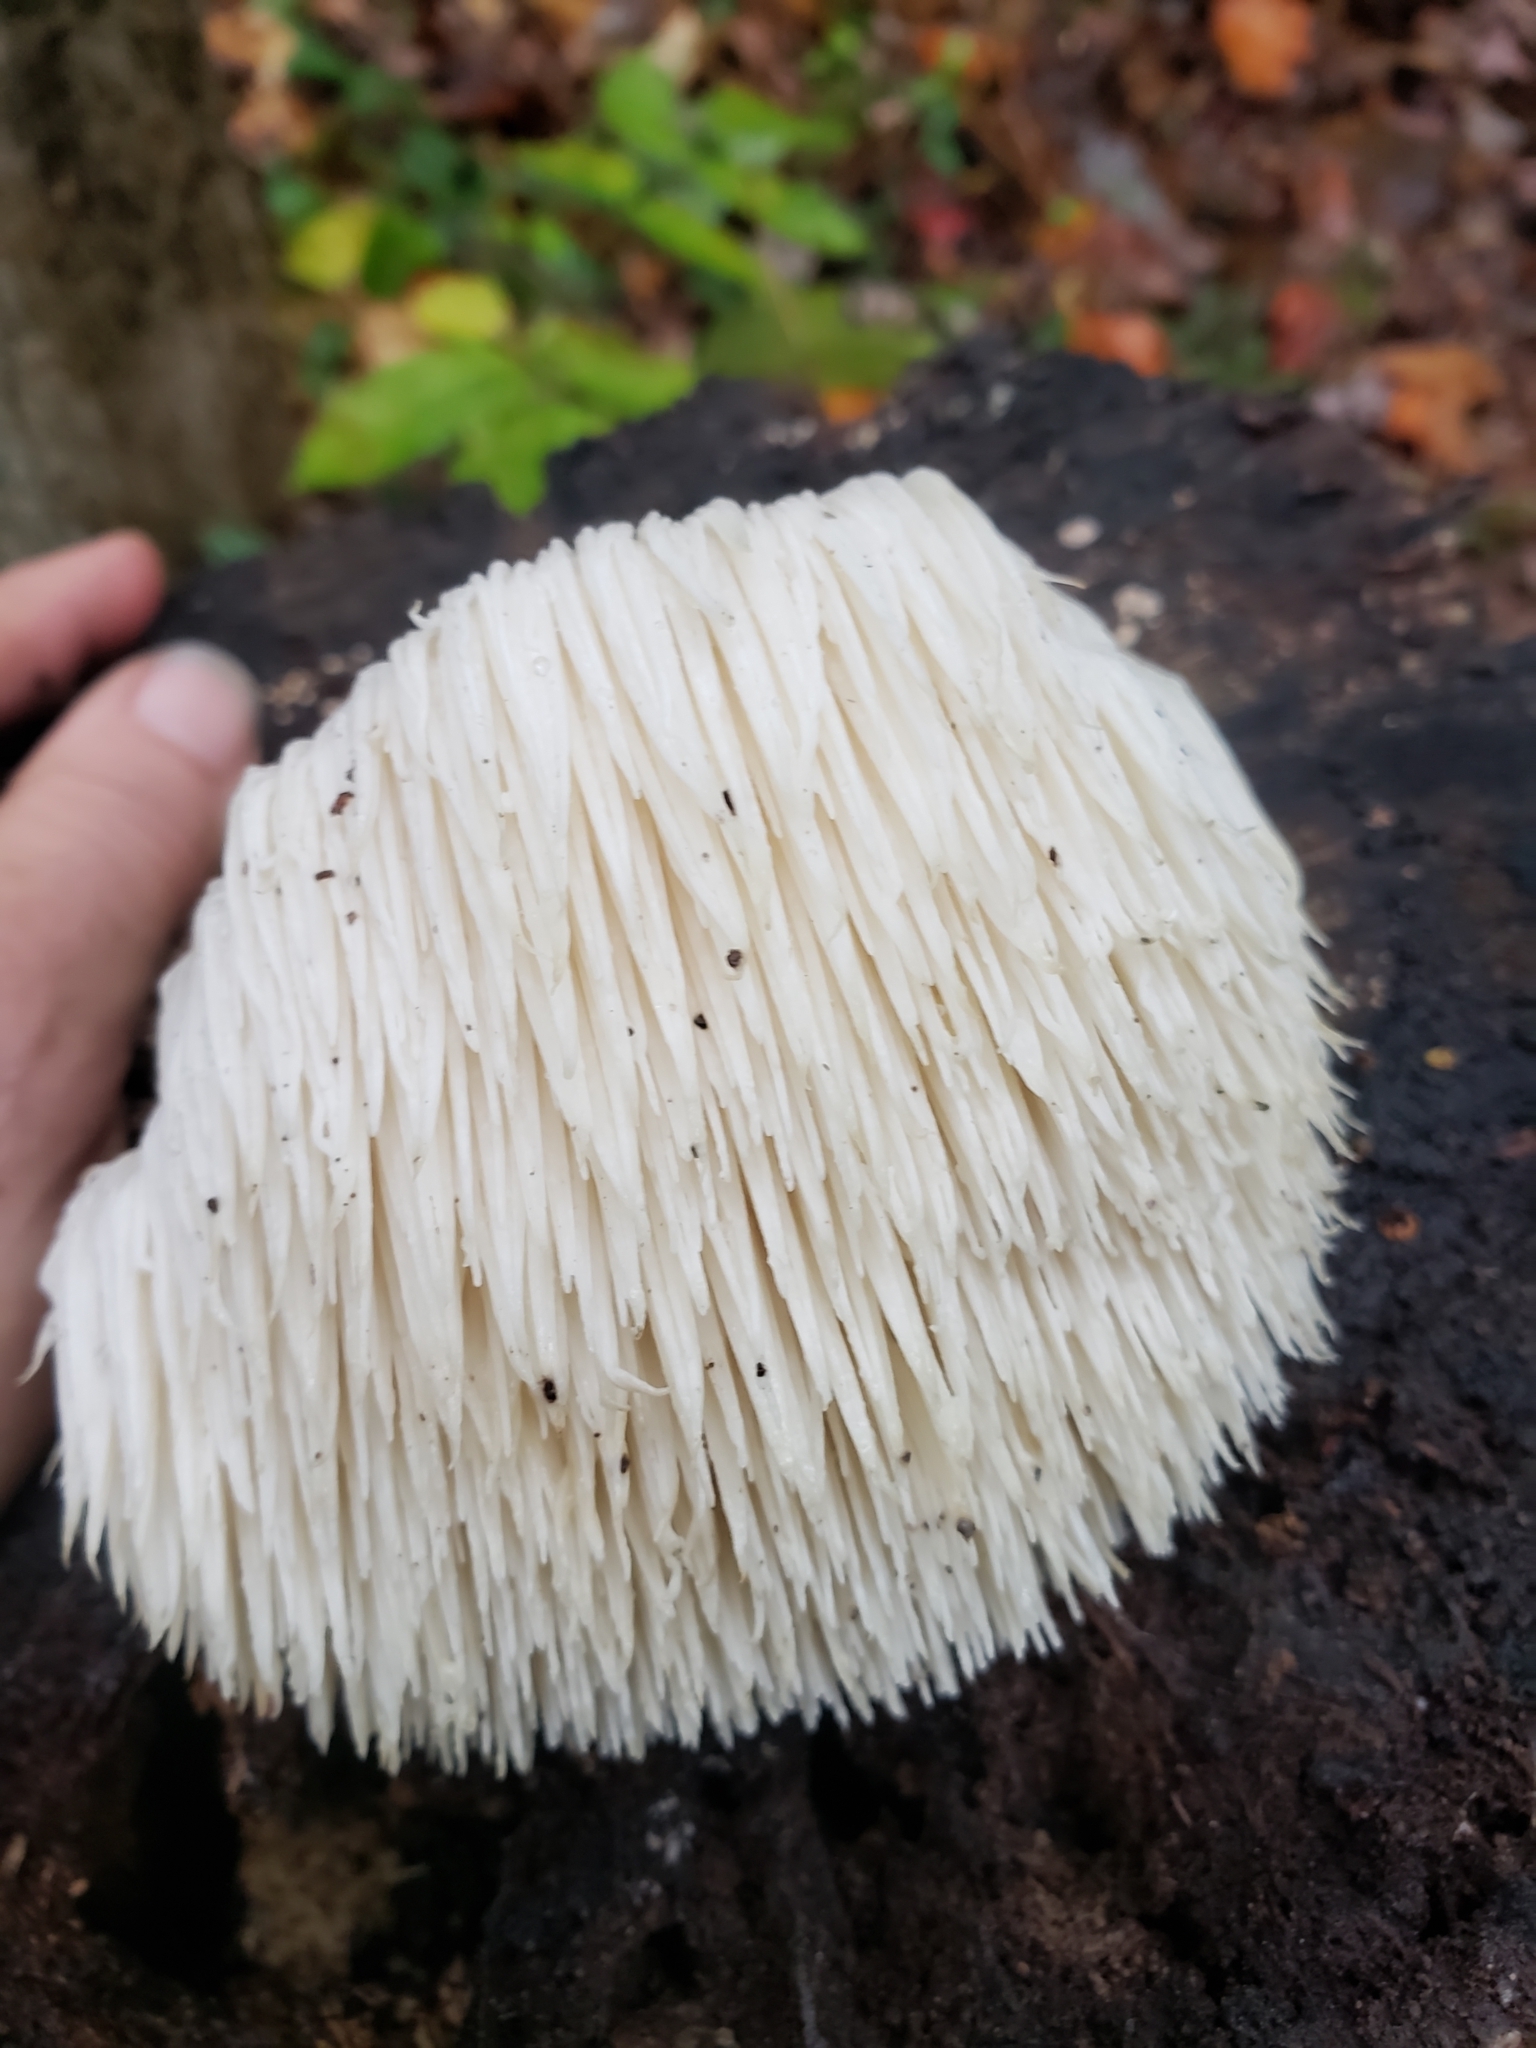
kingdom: Fungi
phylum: Basidiomycota
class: Agaricomycetes
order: Russulales
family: Hericiaceae
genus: Hericium
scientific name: Hericium erinaceus
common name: Bearded tooth
